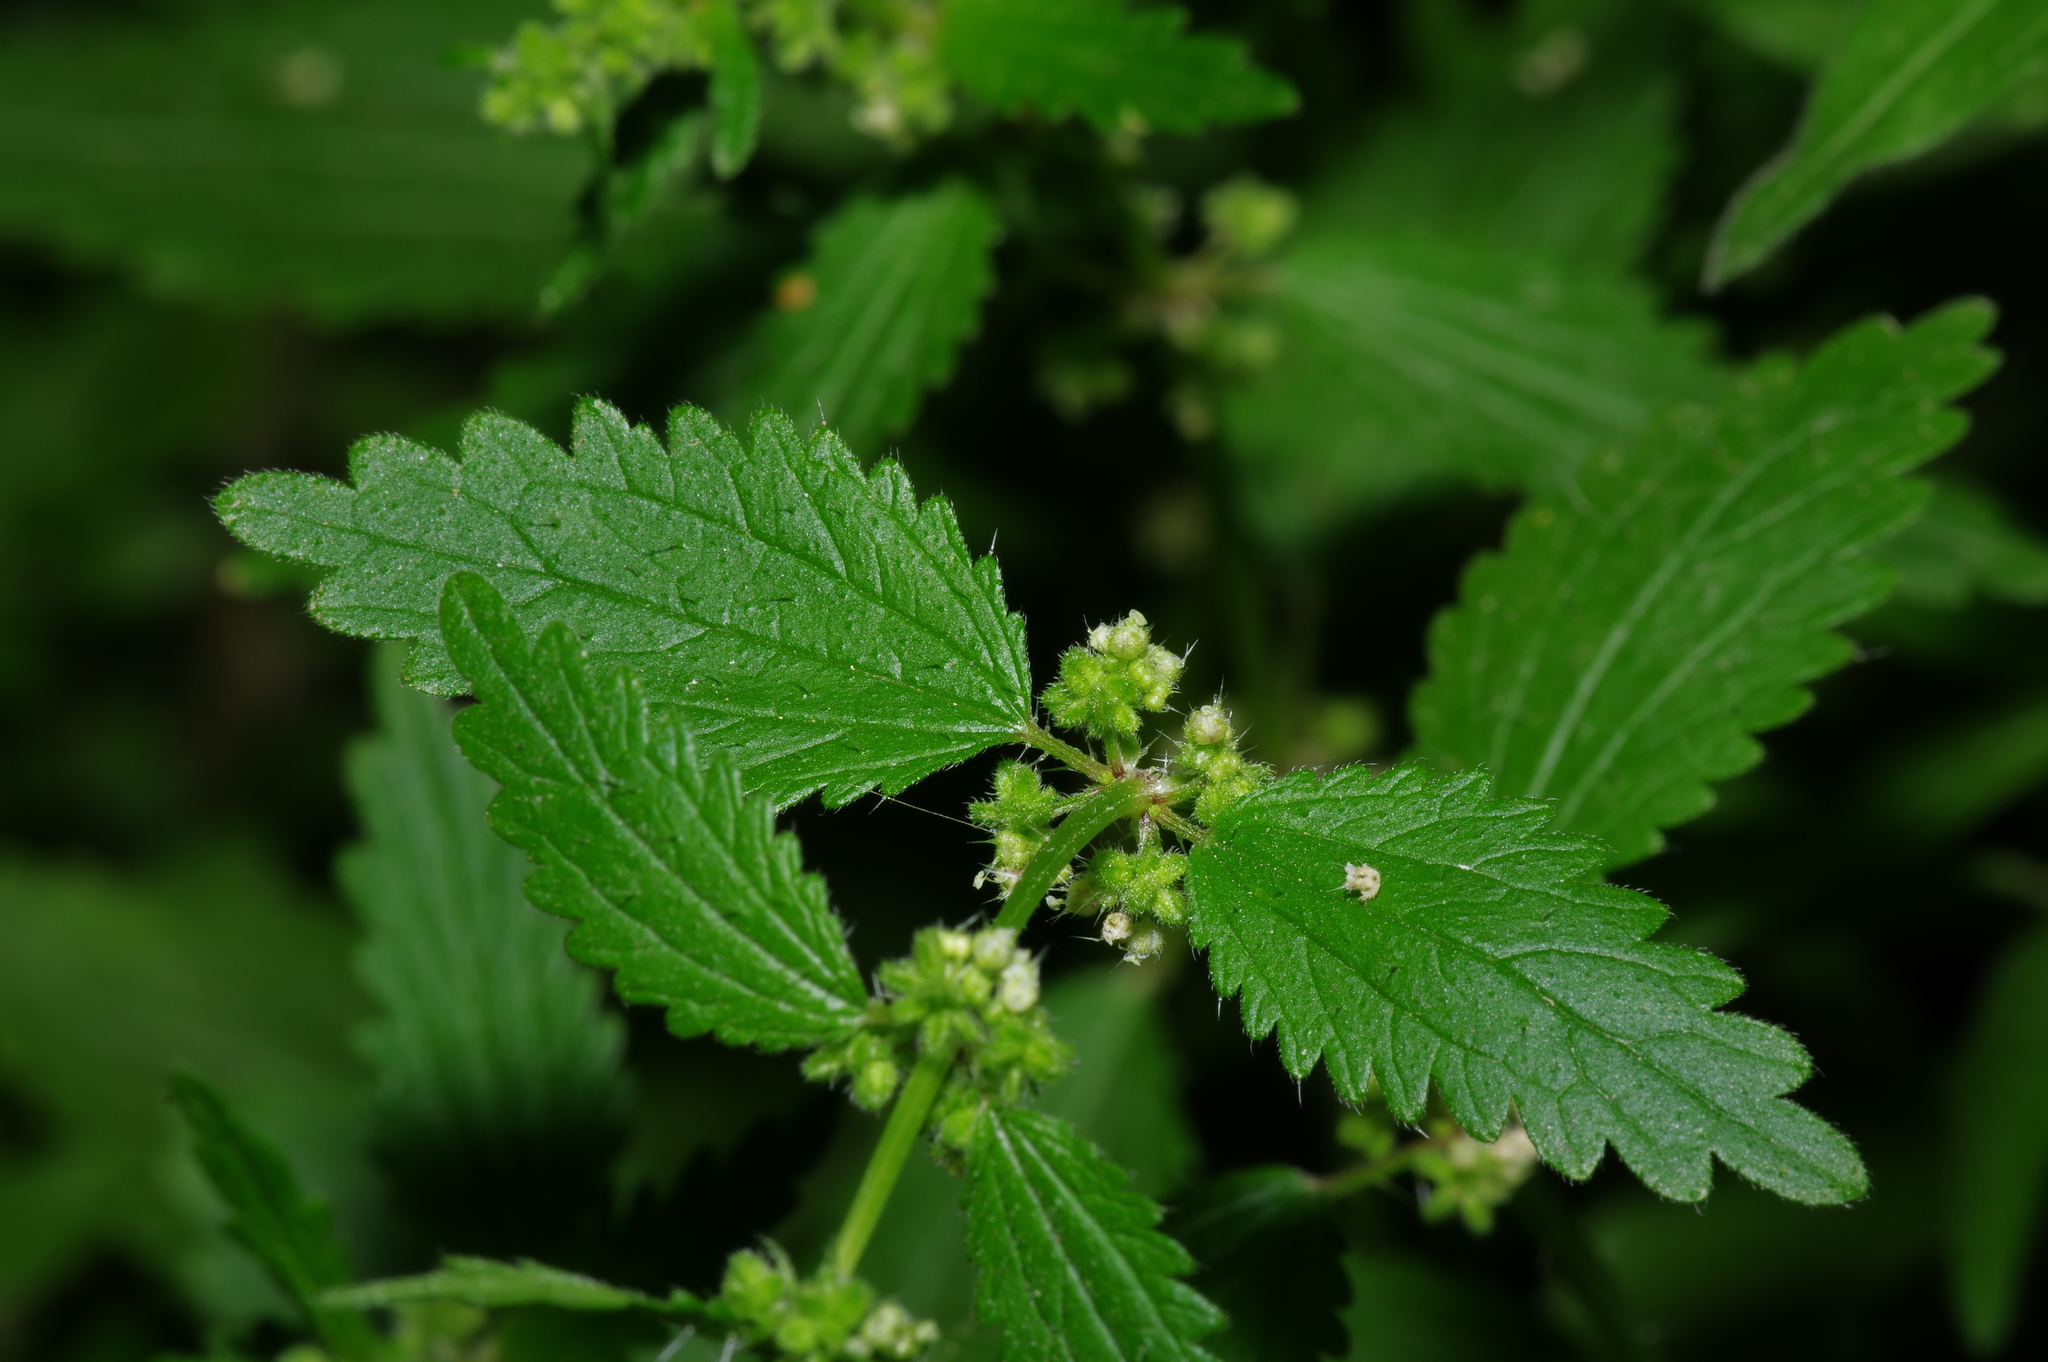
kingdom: Plantae
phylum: Tracheophyta
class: Magnoliopsida
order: Rosales
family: Urticaceae
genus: Urtica
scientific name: Urtica chamaedryoides
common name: Heart-leaf nettle
